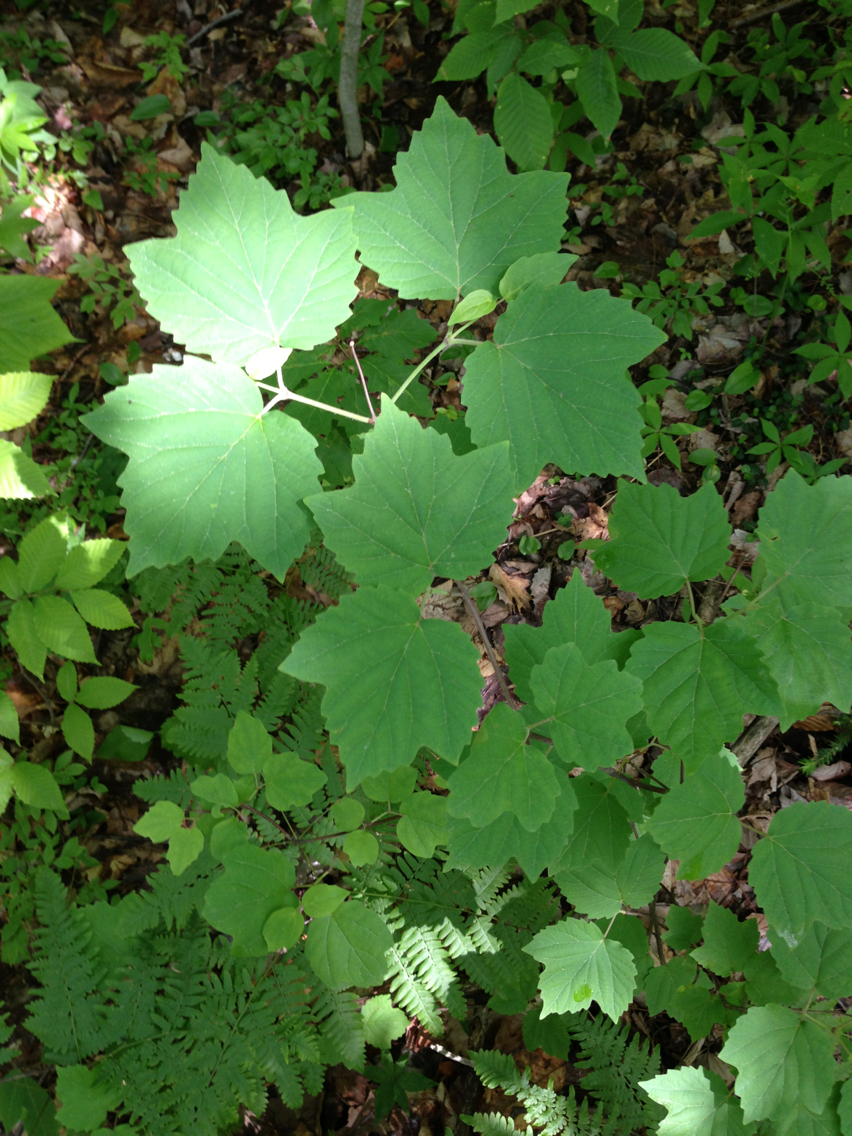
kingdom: Plantae
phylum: Tracheophyta
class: Magnoliopsida
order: Dipsacales
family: Viburnaceae
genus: Viburnum
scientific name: Viburnum acerifolium
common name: Dockmackie
